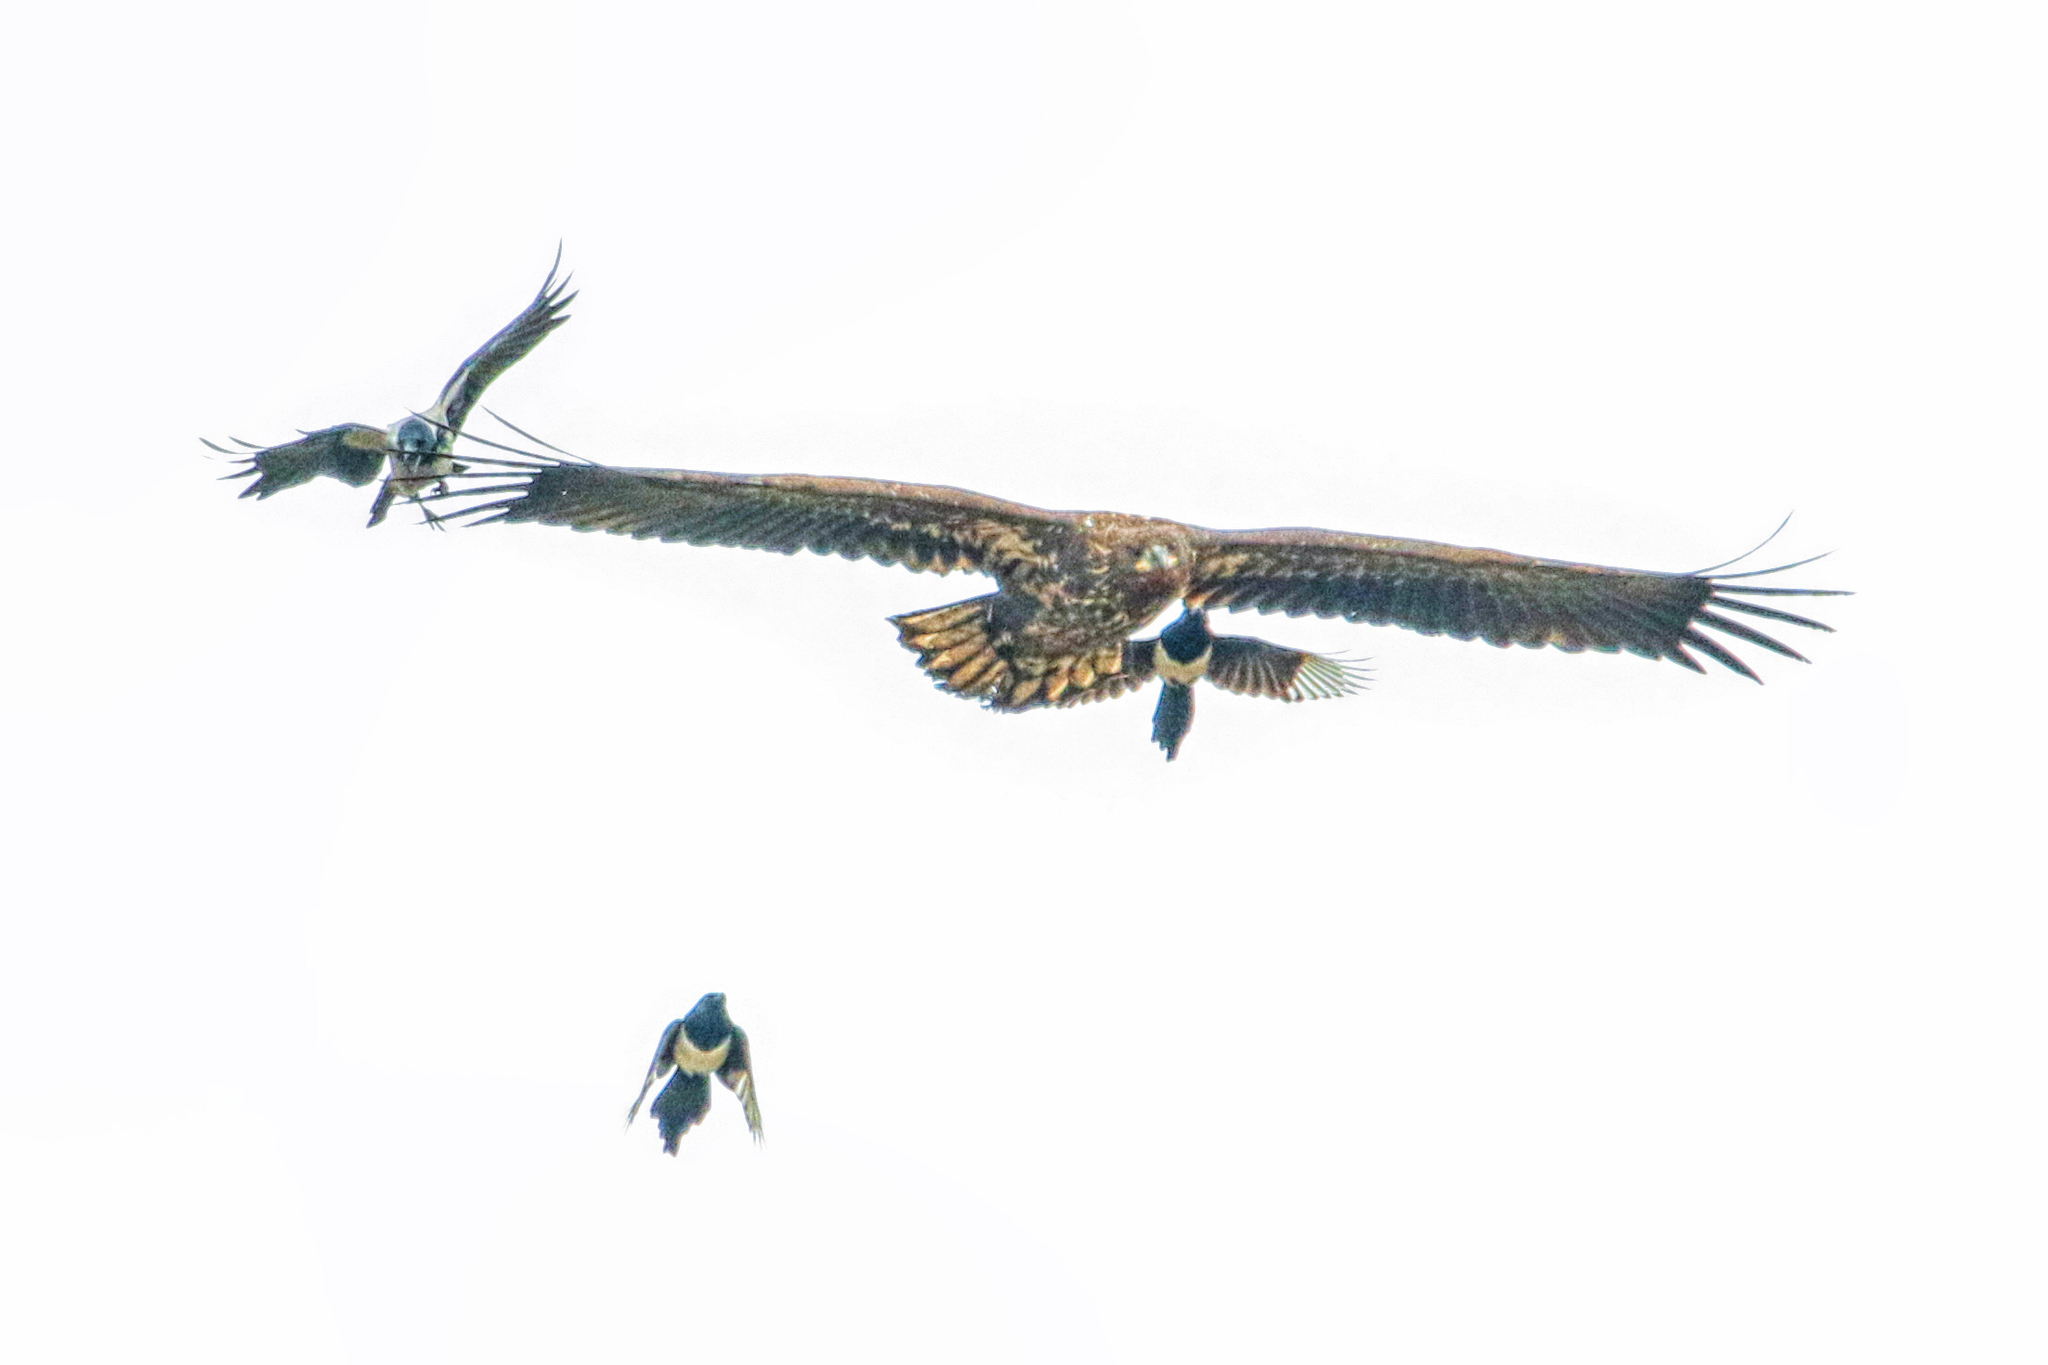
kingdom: Animalia
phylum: Chordata
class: Aves
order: Accipitriformes
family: Accipitridae
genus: Haliaeetus
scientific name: Haliaeetus albicilla
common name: White-tailed eagle
